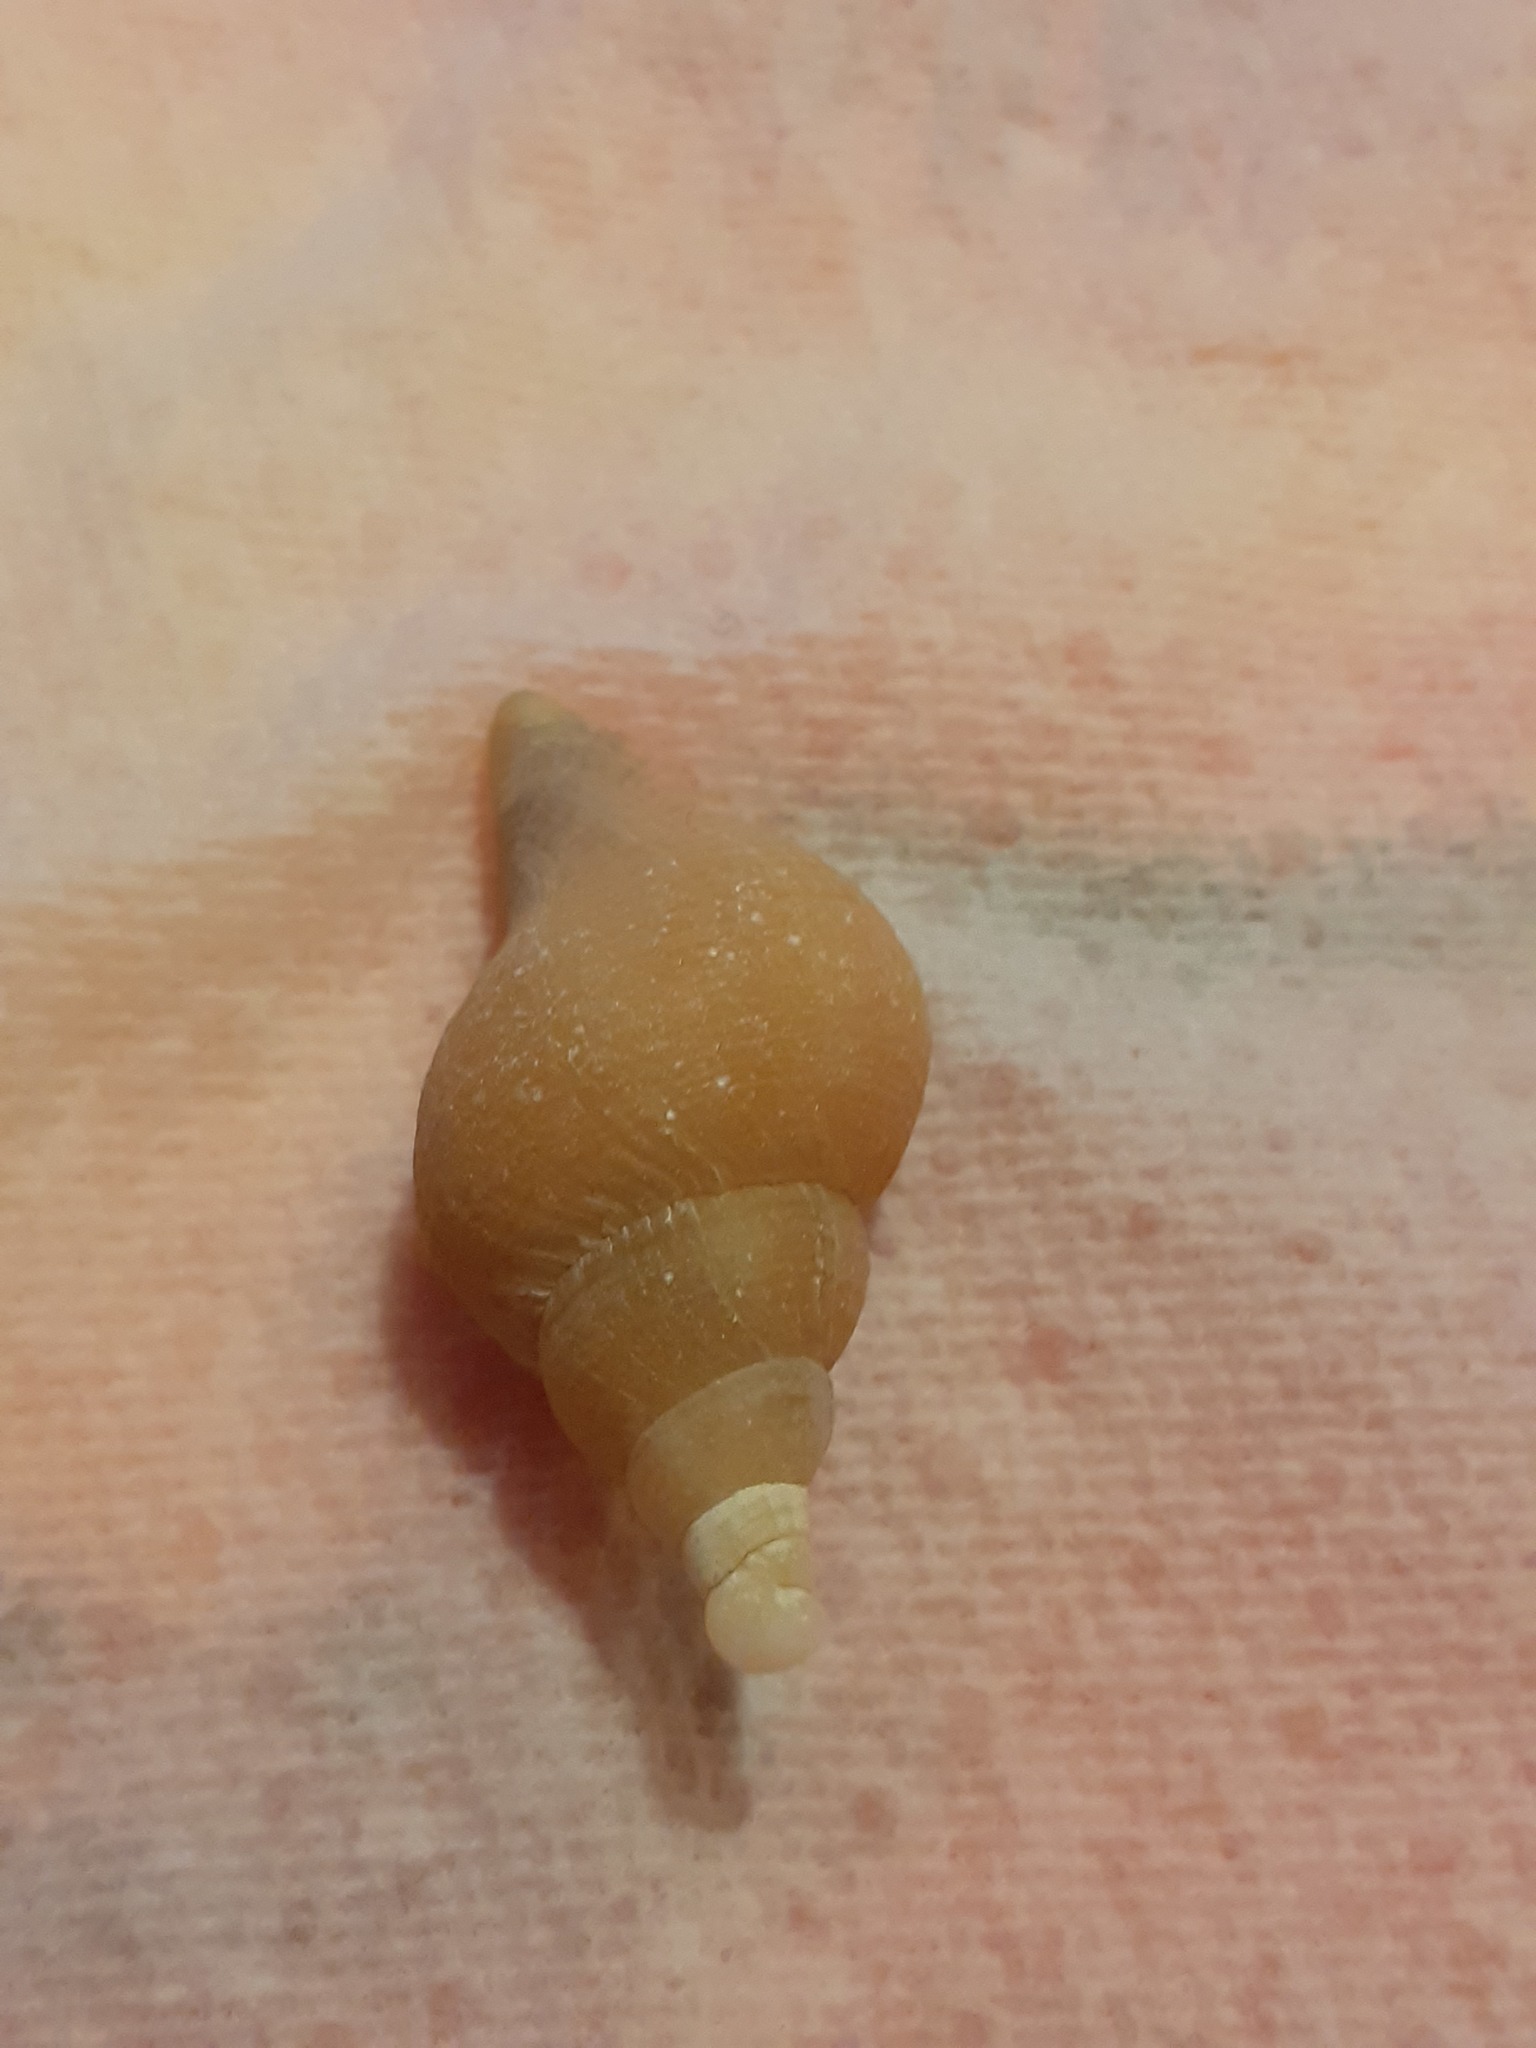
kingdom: Animalia
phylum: Mollusca
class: Gastropoda
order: Neogastropoda
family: Buccinidae
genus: Neptunea
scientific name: Neptunea antiqua
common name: Buckie
